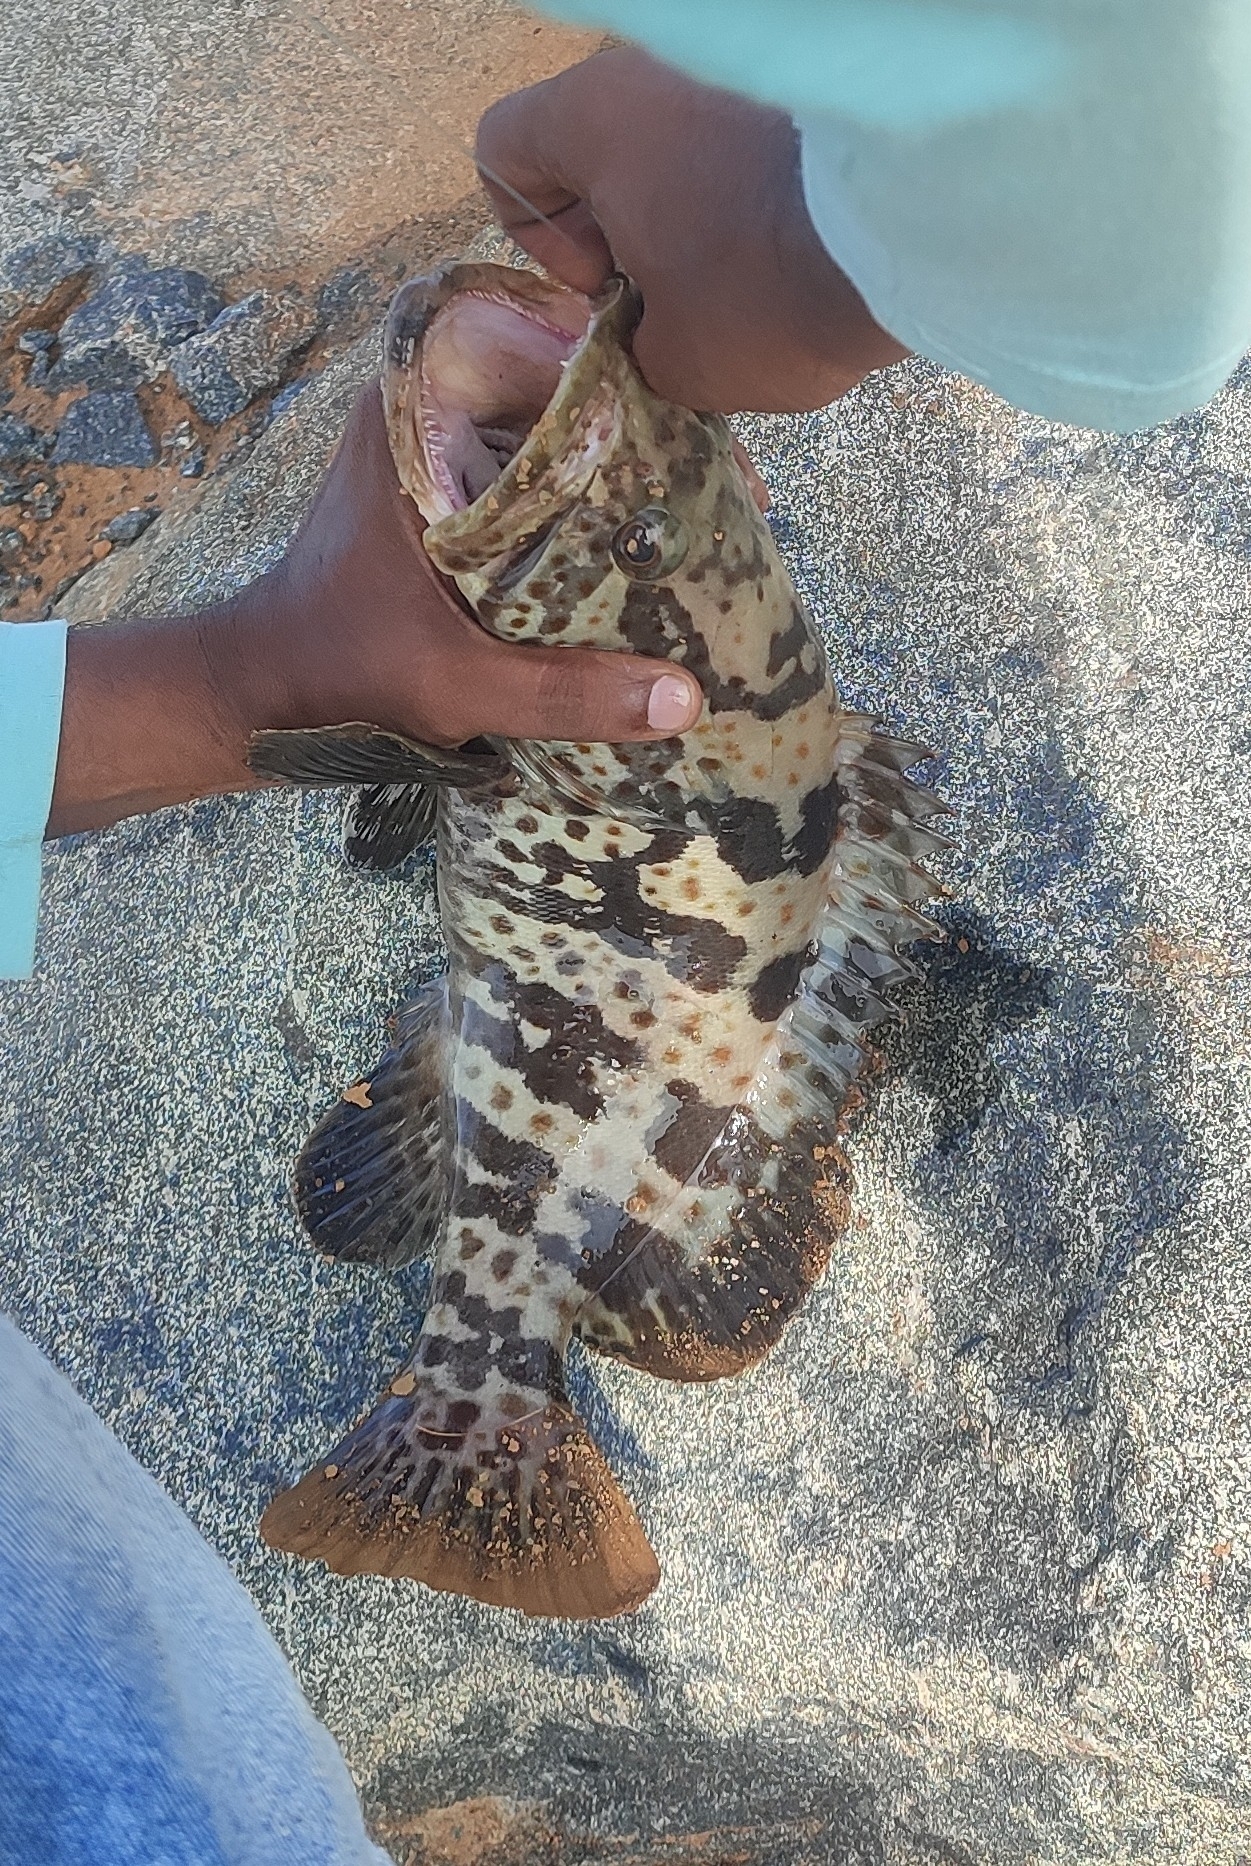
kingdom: Animalia
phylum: Chordata
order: Perciformes
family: Serranidae
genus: Epinephelus
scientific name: Epinephelus coioides
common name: Orange-spotted grouper
